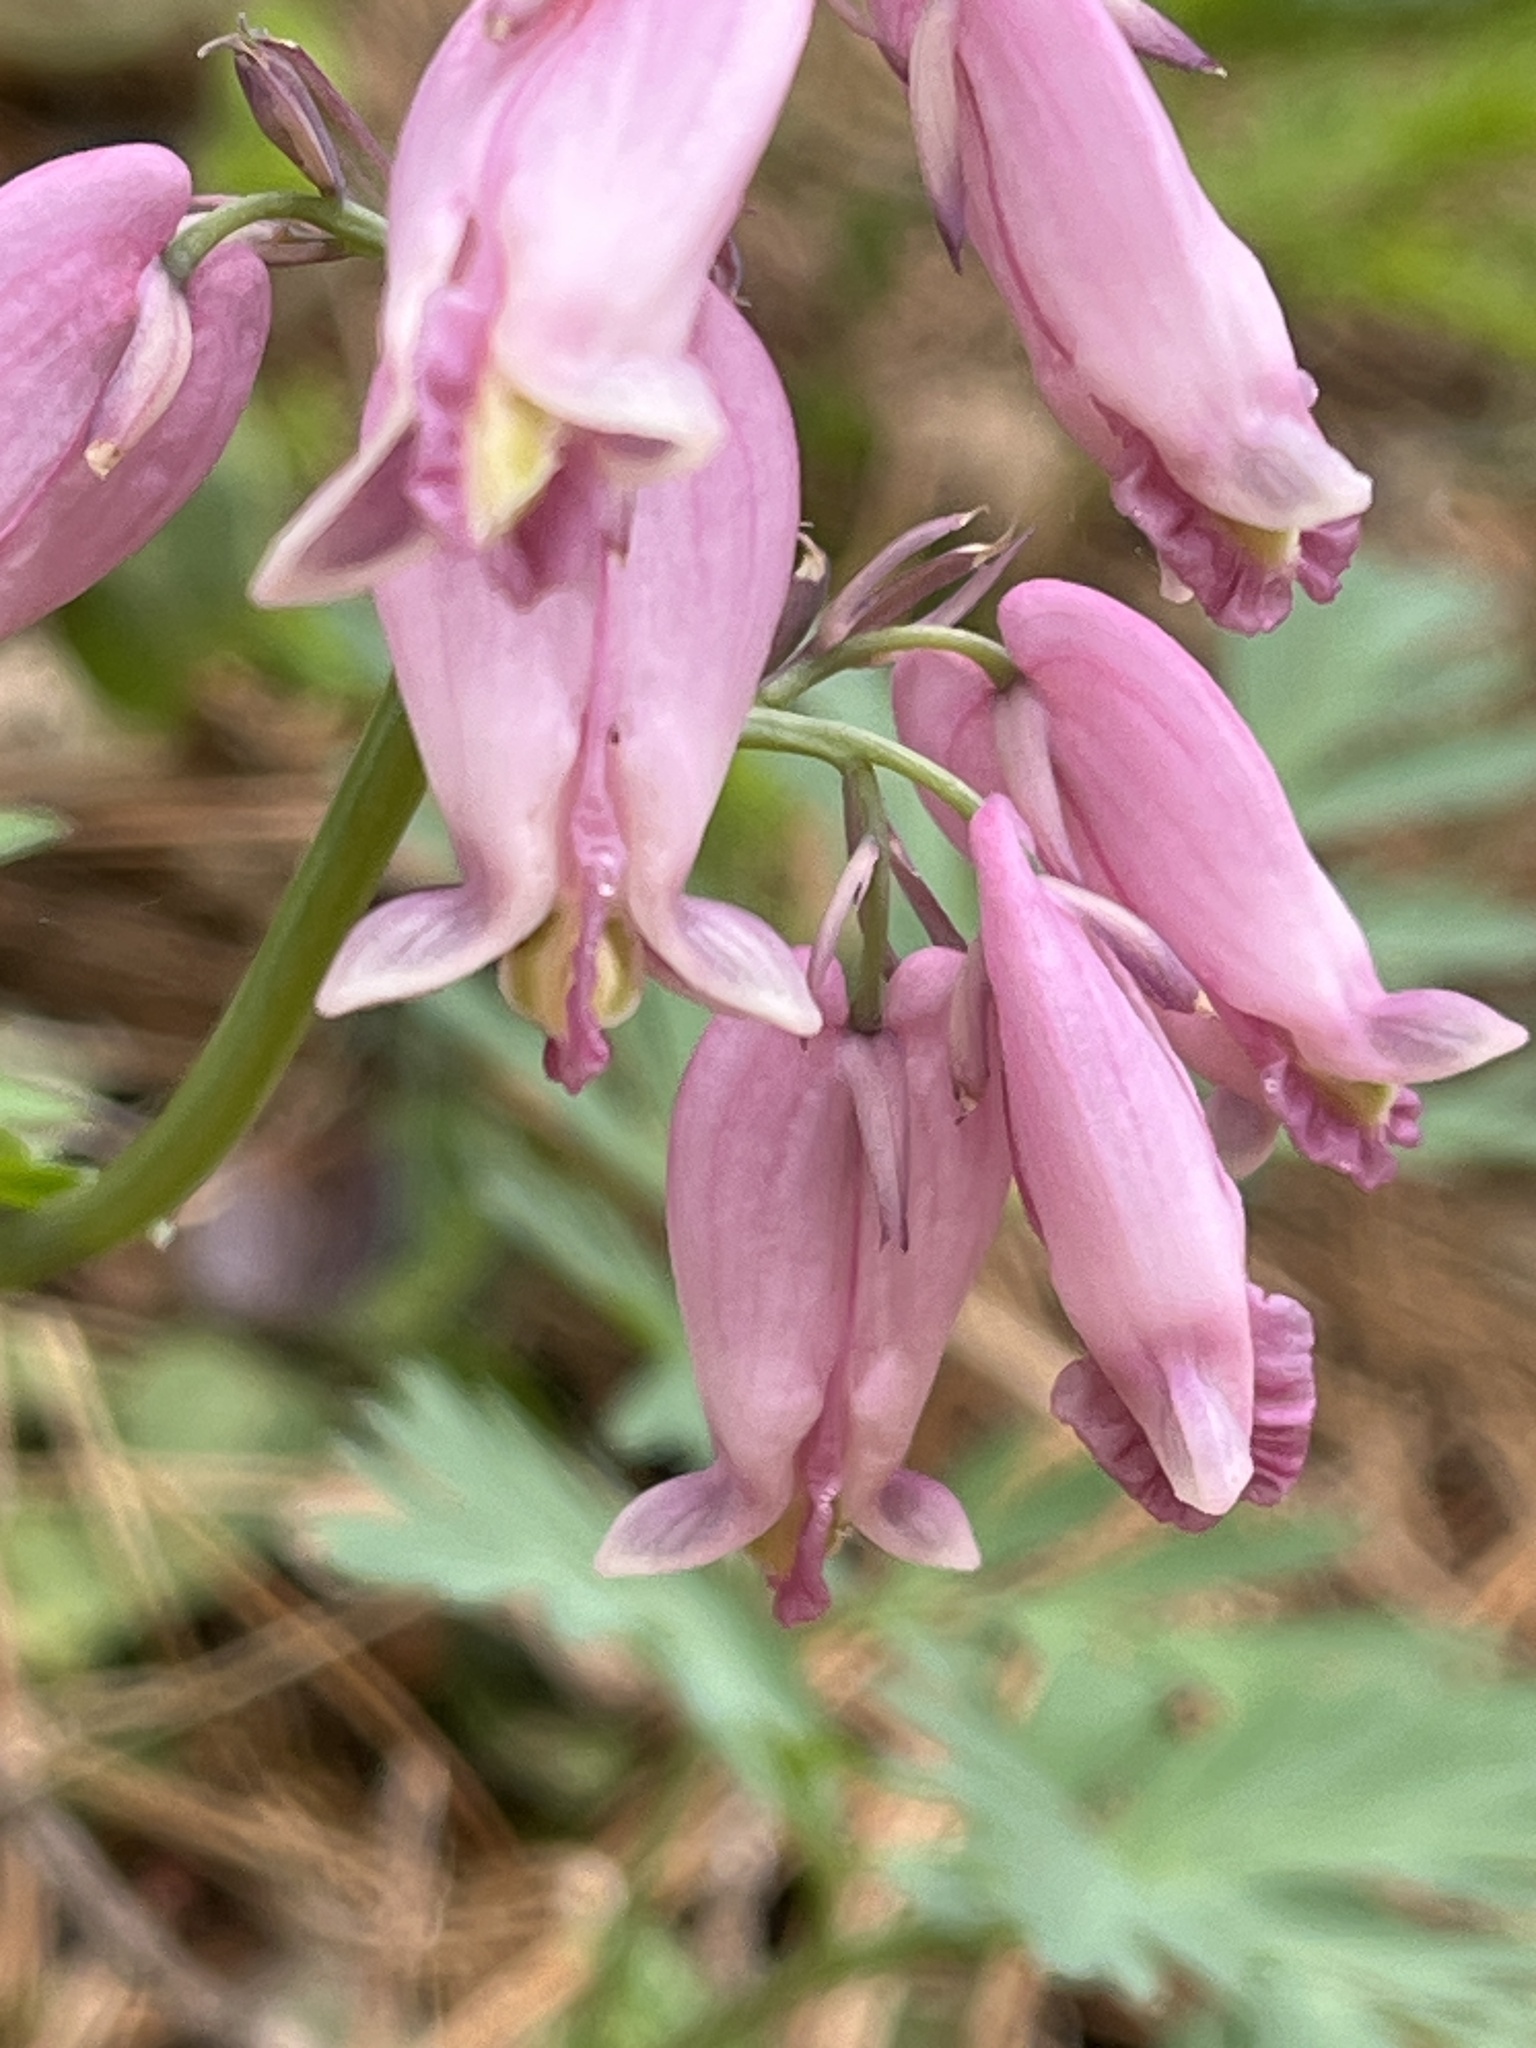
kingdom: Plantae
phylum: Tracheophyta
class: Magnoliopsida
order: Ranunculales
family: Papaveraceae
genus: Dicentra
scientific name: Dicentra formosa
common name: Bleeding-heart
